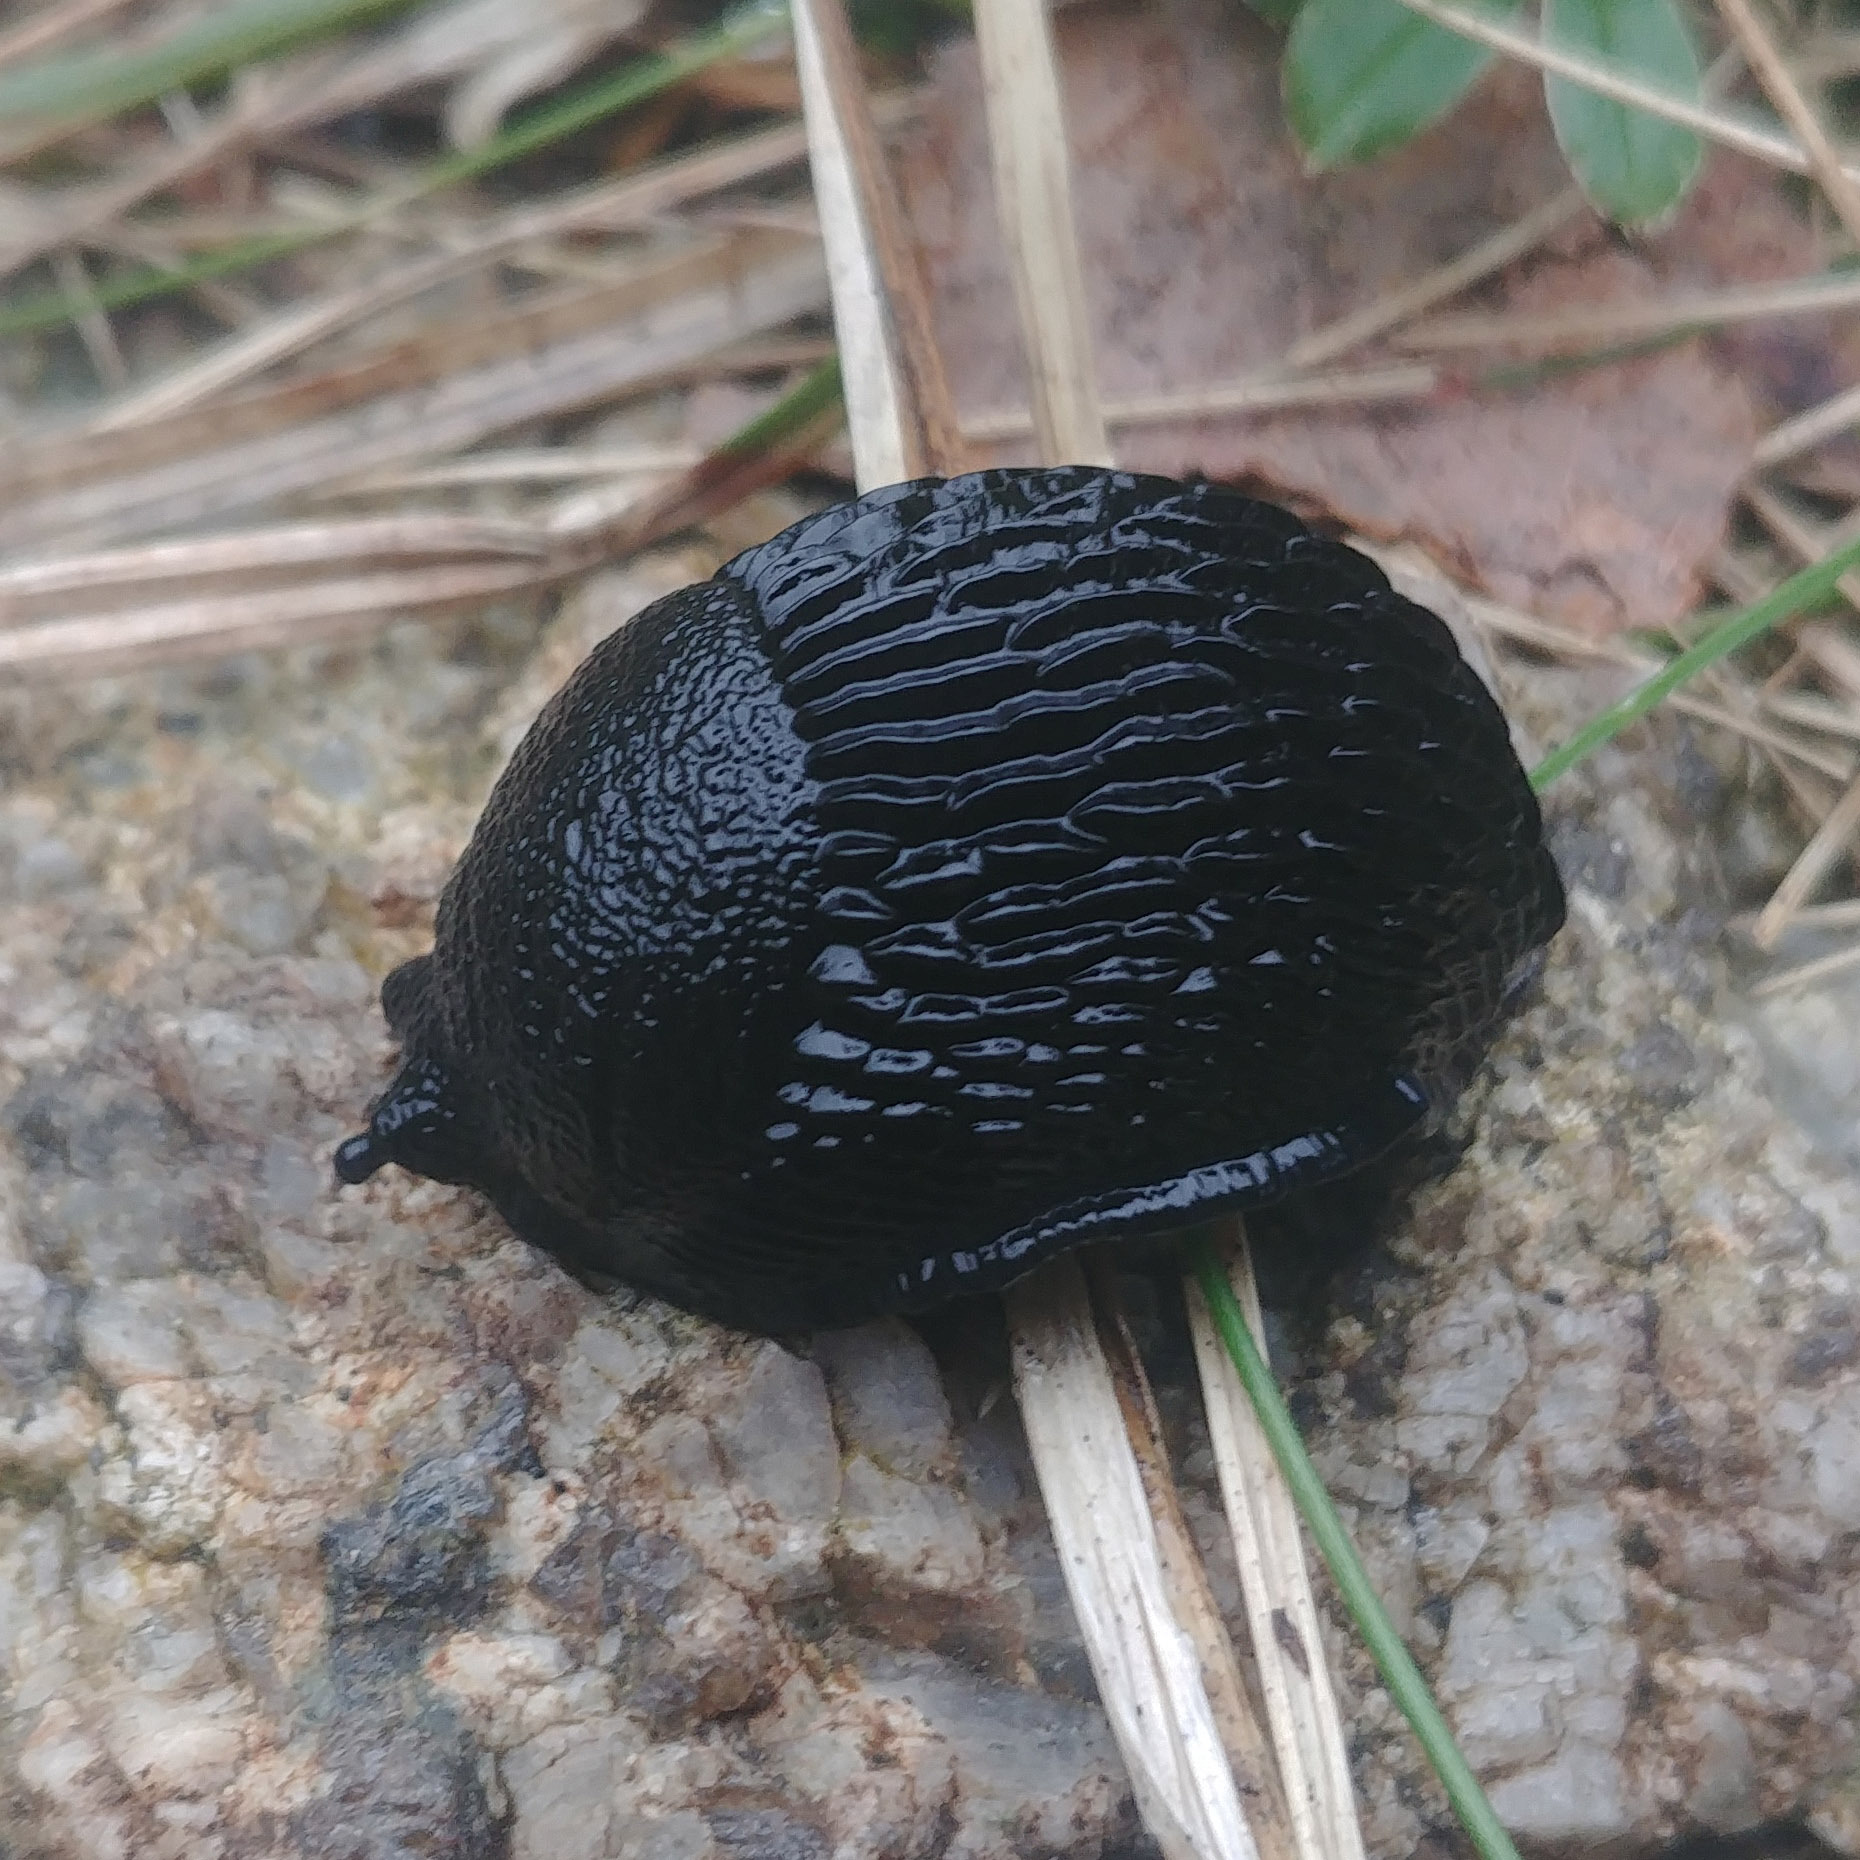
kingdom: Animalia
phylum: Mollusca
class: Gastropoda
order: Stylommatophora
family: Arionidae
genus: Arion
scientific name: Arion ater
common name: Black arion
